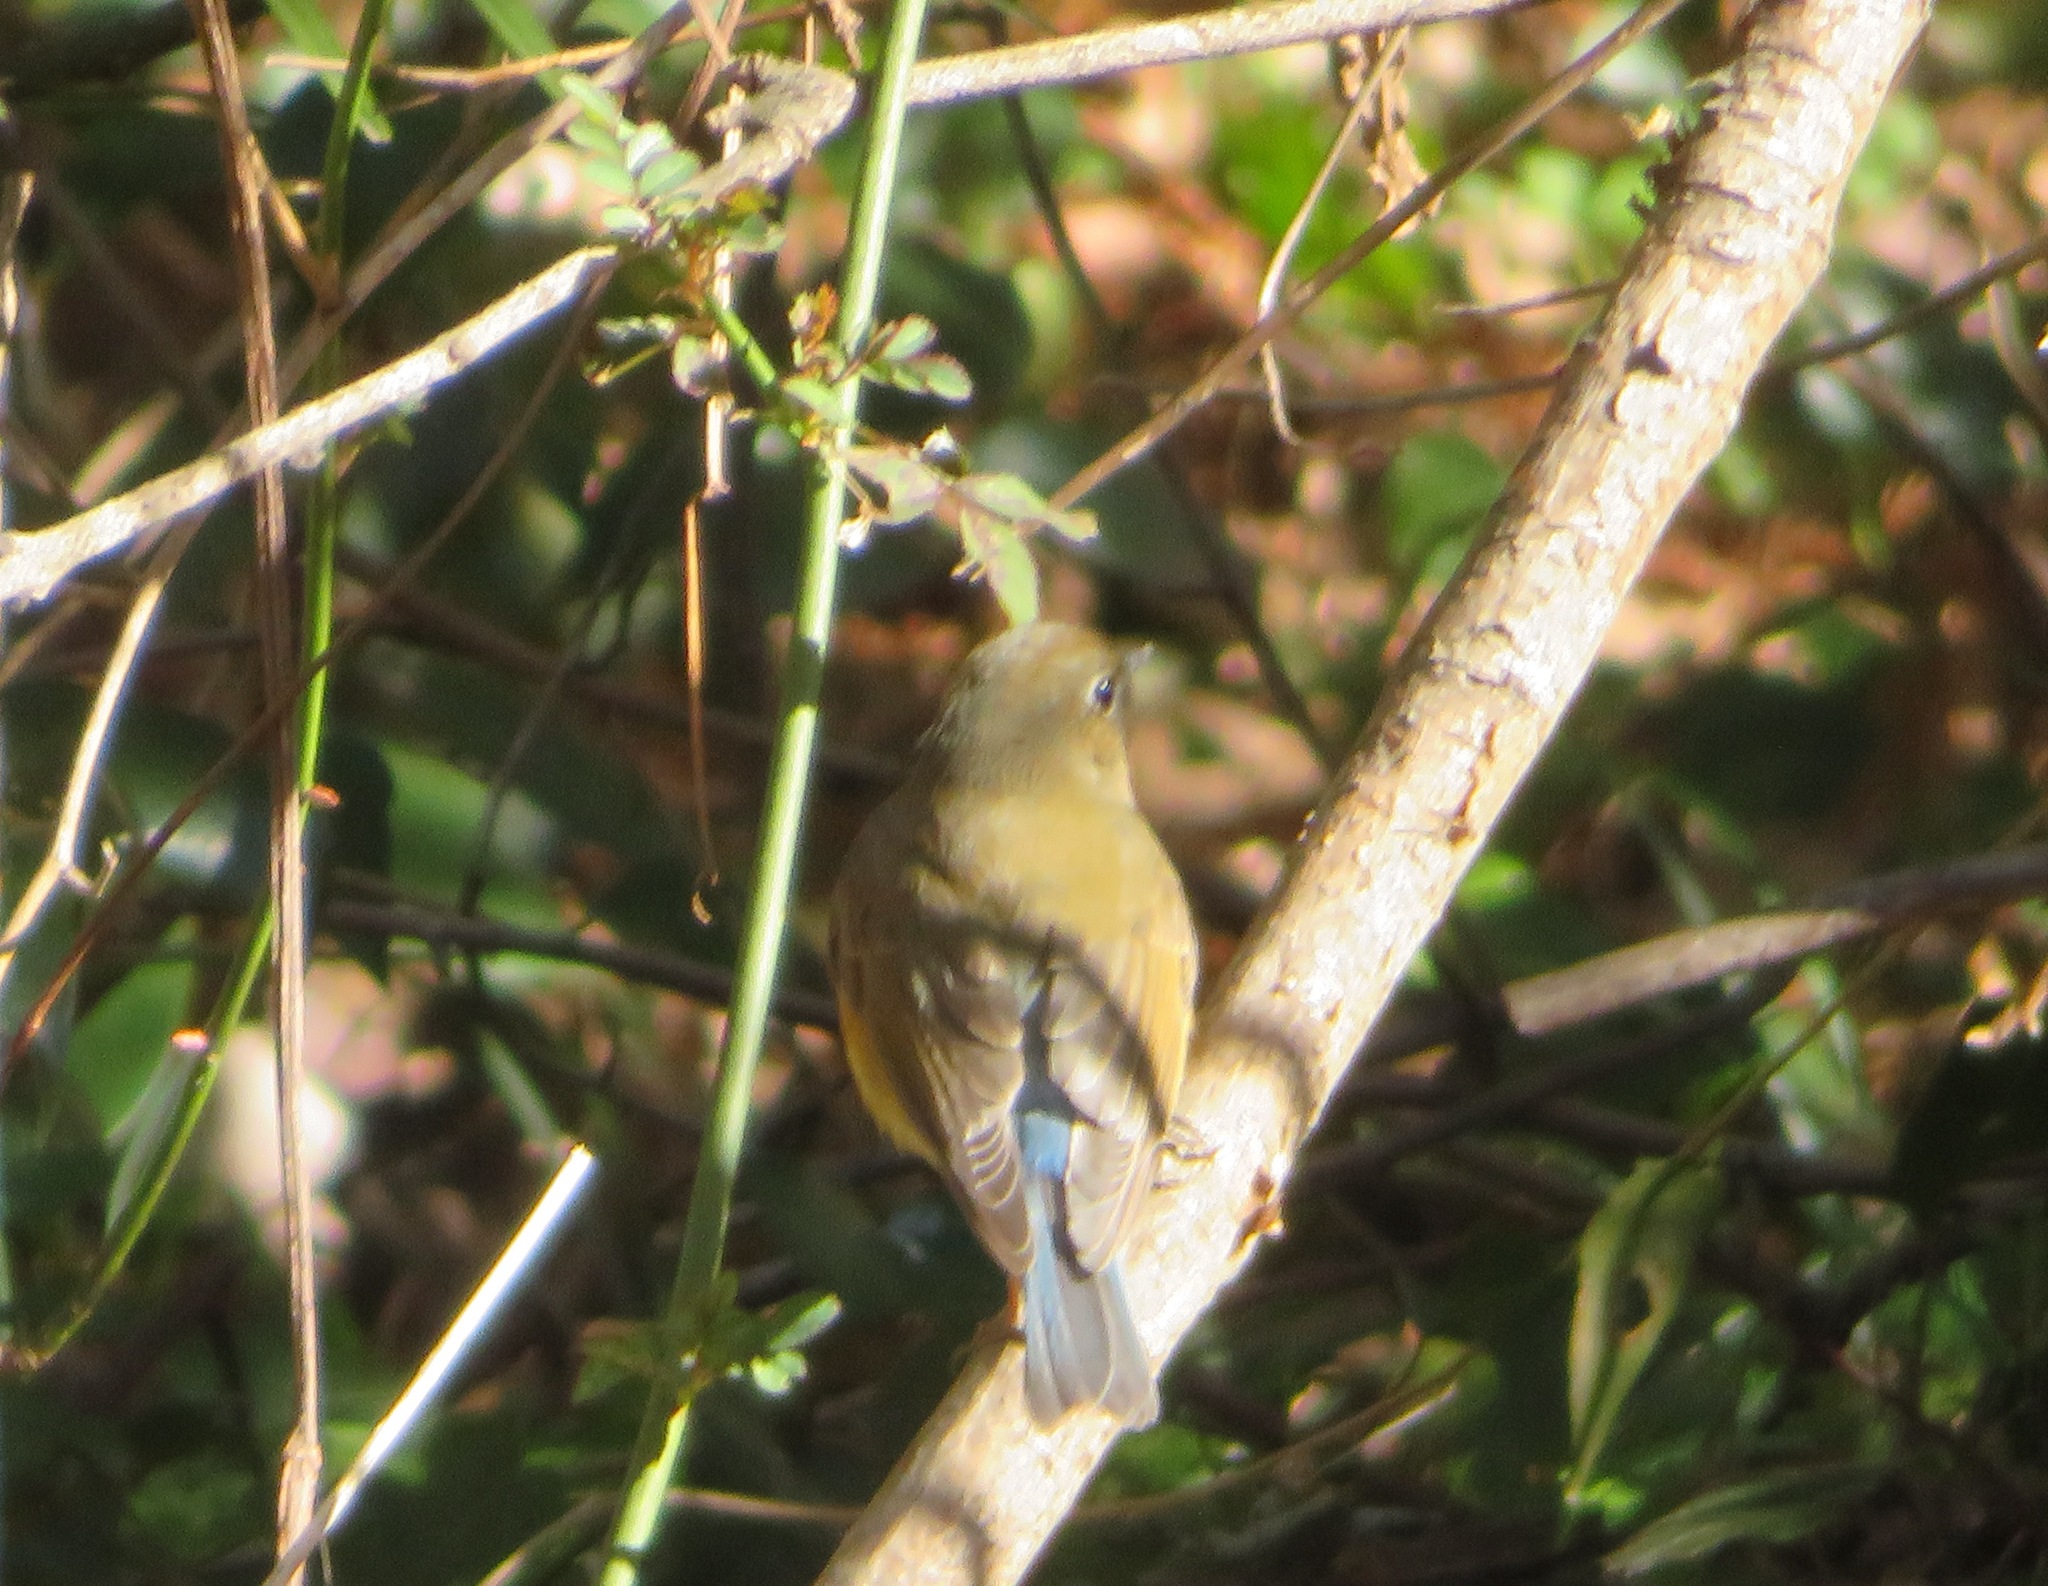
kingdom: Animalia
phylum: Chordata
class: Aves
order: Passeriformes
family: Muscicapidae
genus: Tarsiger
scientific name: Tarsiger cyanurus
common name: Red-flanked bluetail
